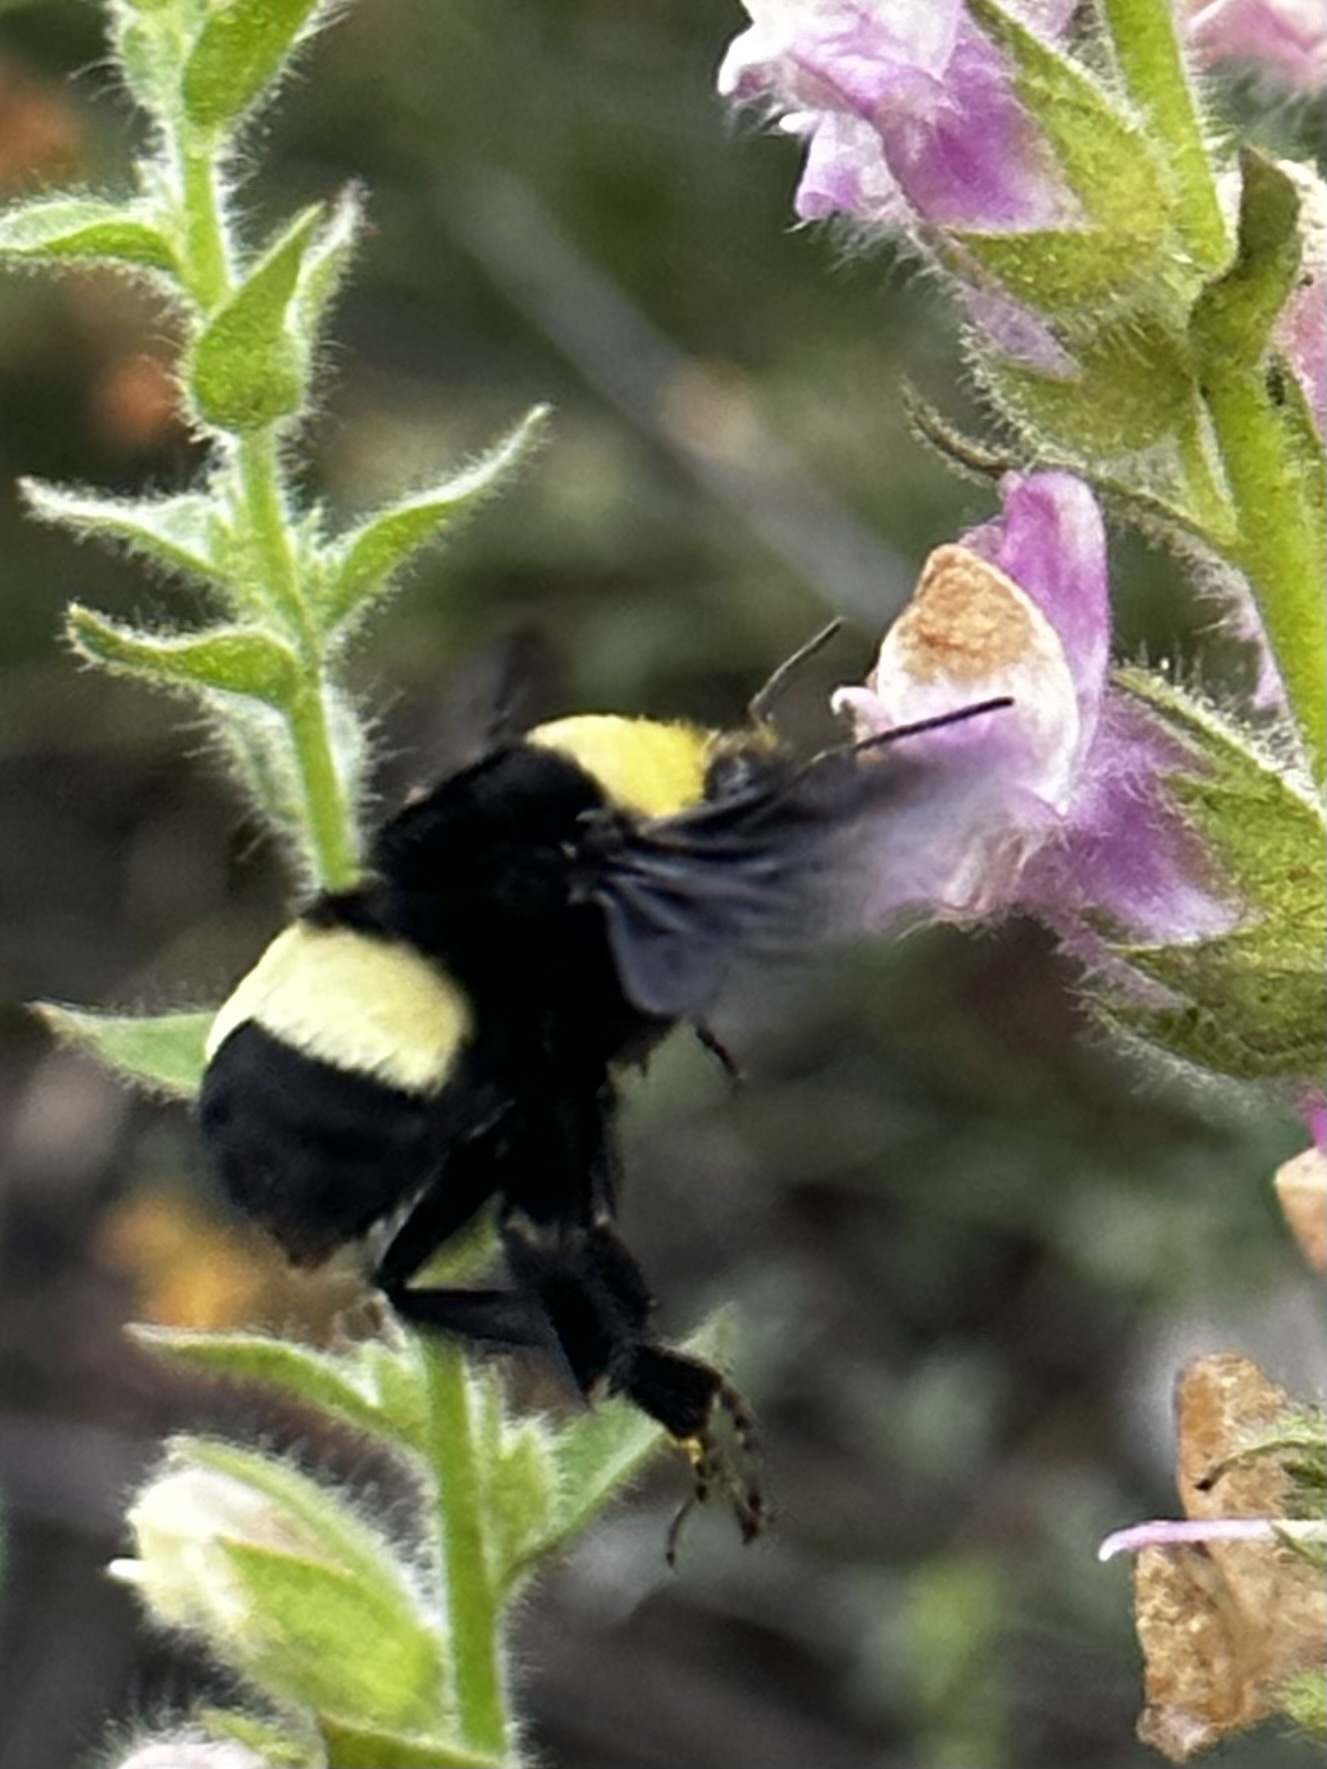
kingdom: Animalia
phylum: Arthropoda
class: Insecta
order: Hymenoptera
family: Apidae
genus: Bombus
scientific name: Bombus crotchii
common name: Crotch bumble bee
